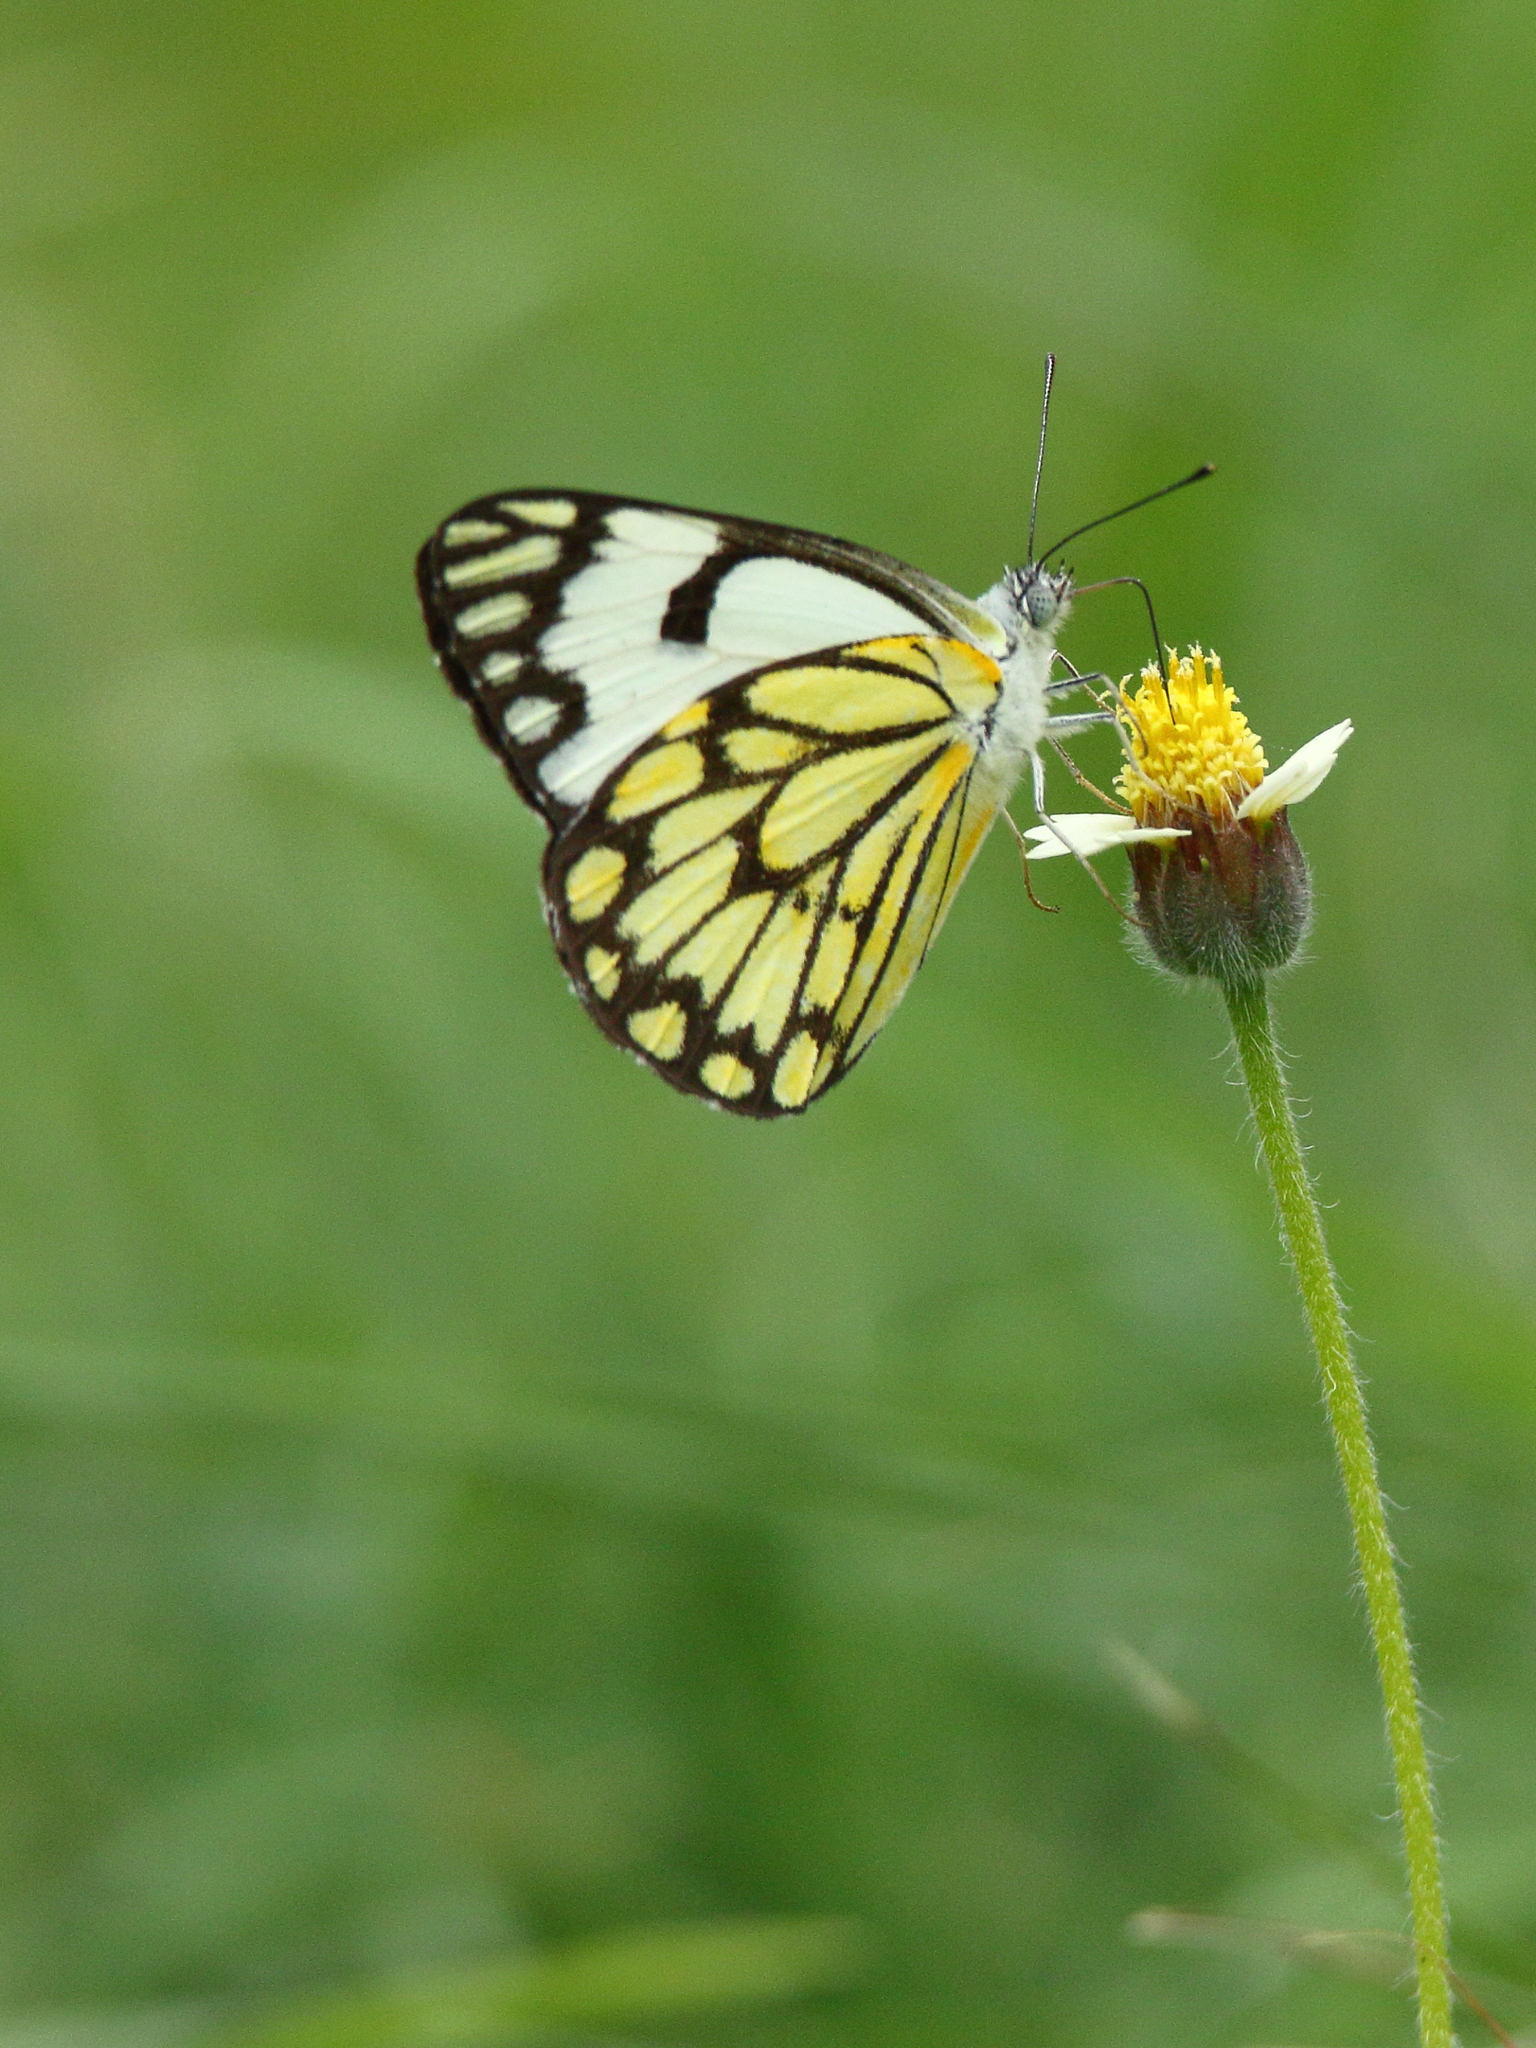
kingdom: Animalia
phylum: Arthropoda
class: Insecta
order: Lepidoptera
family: Pieridae
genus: Belenois
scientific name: Belenois aurota
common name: Brown-veined white
